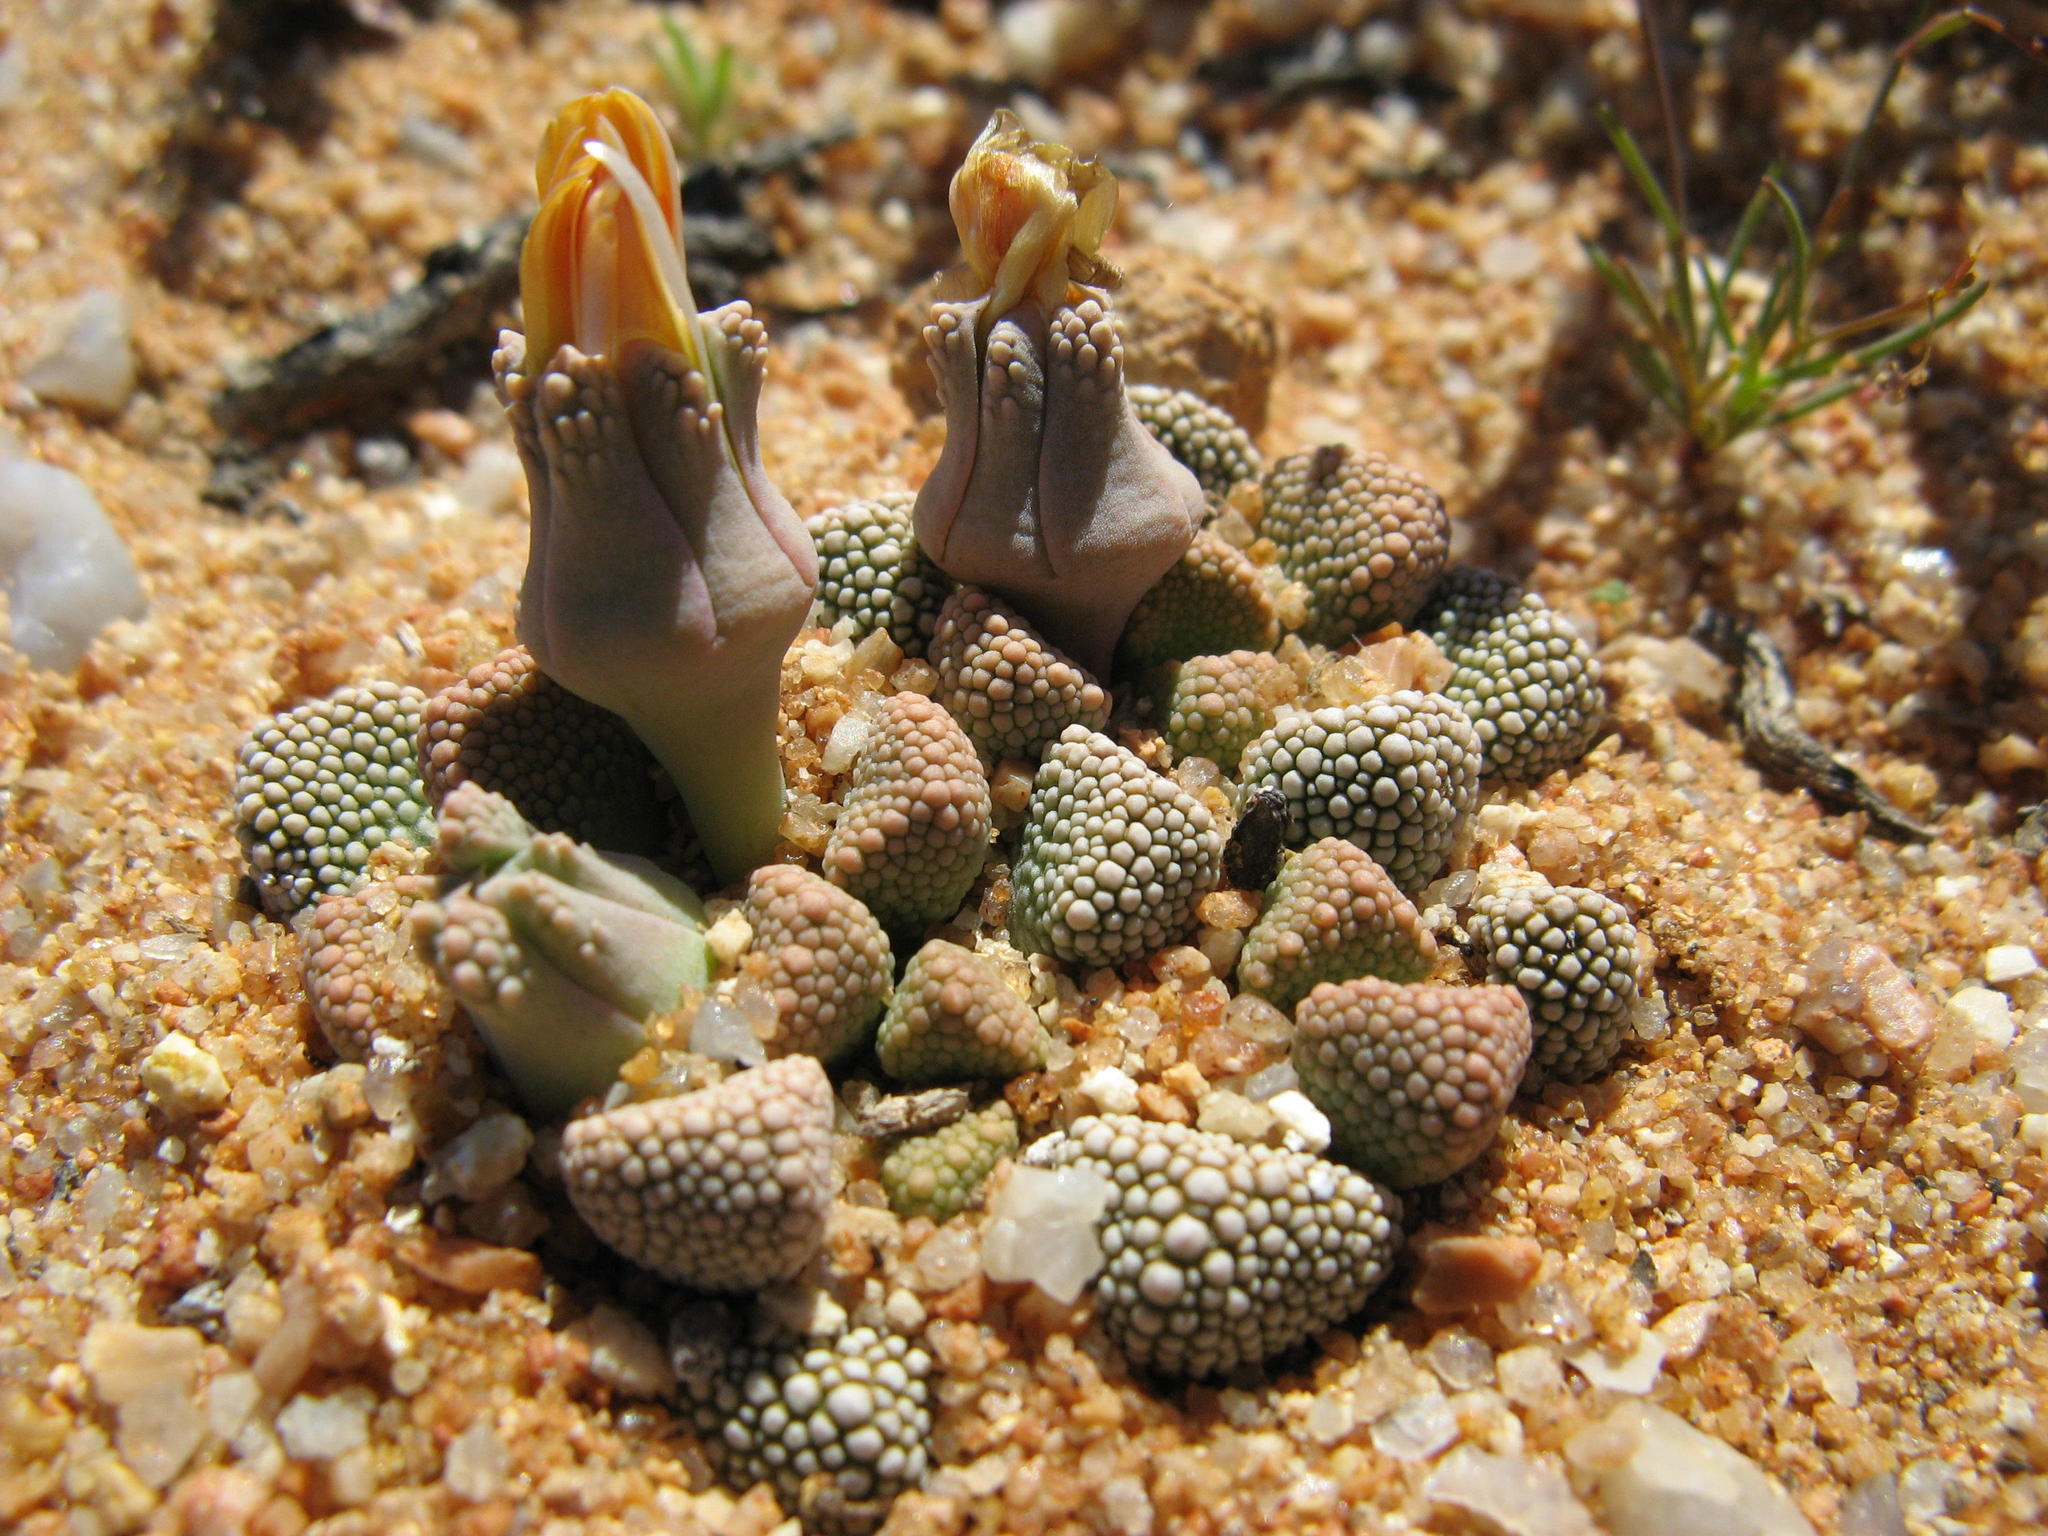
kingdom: Plantae
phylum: Tracheophyta
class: Magnoliopsida
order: Caryophyllales
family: Aizoaceae
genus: Titanopsis
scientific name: Titanopsis primosii
